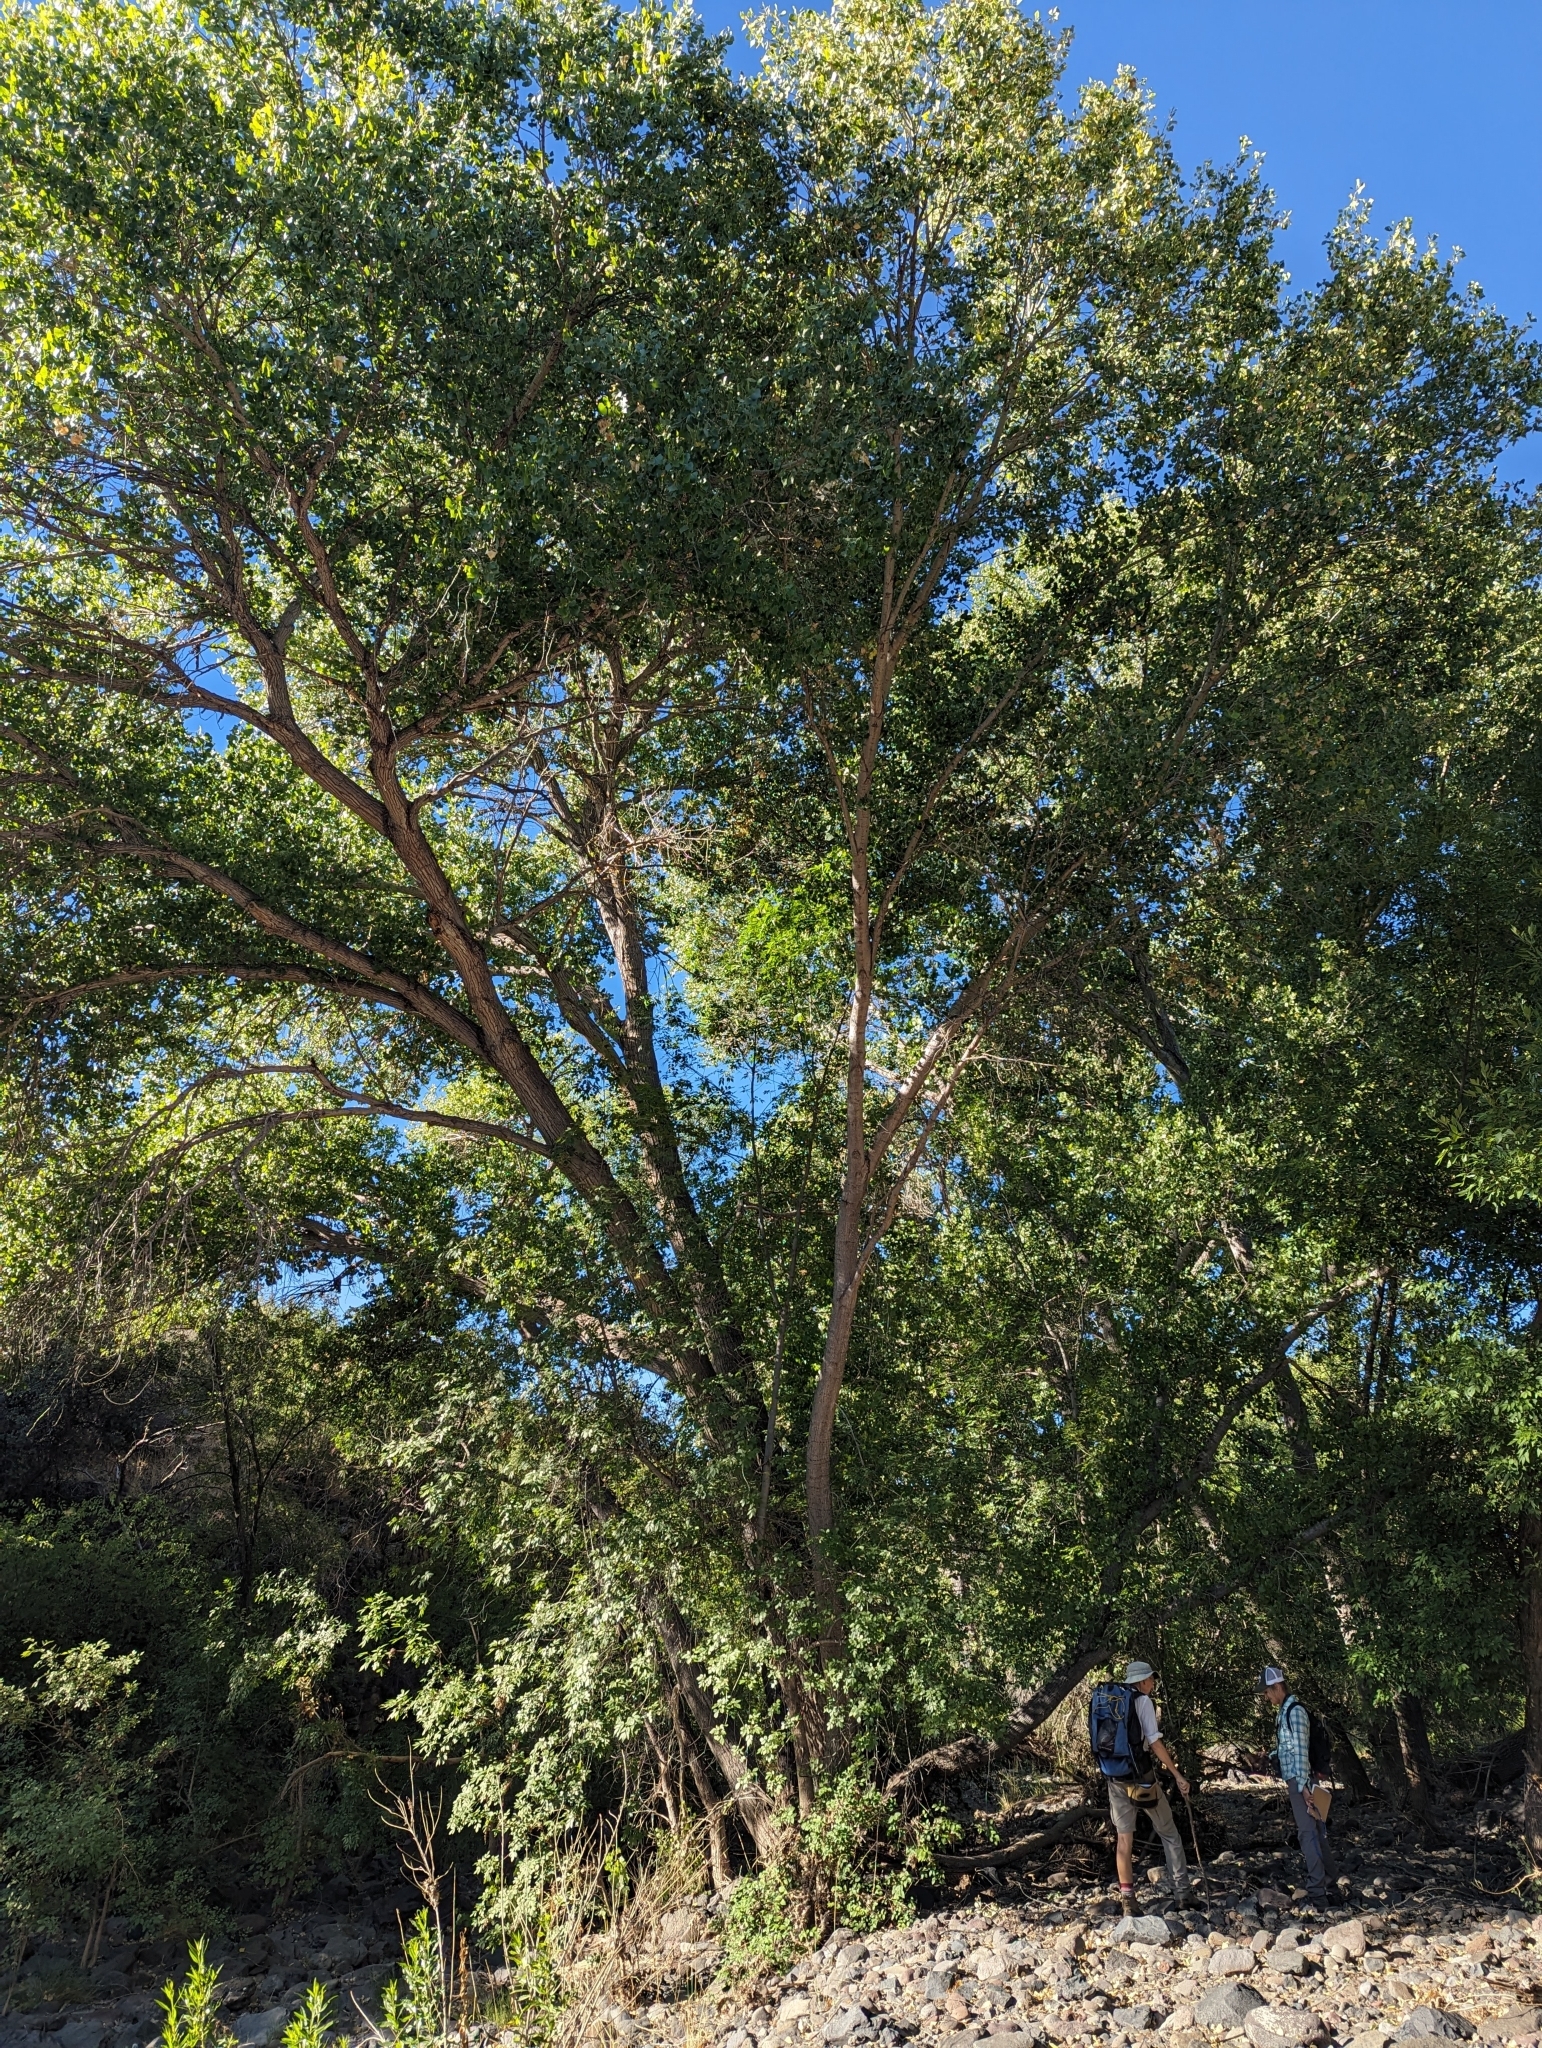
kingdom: Plantae
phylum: Tracheophyta
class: Magnoliopsida
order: Malpighiales
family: Salicaceae
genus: Populus
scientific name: Populus fremontii
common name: Fremont's cottonwood
